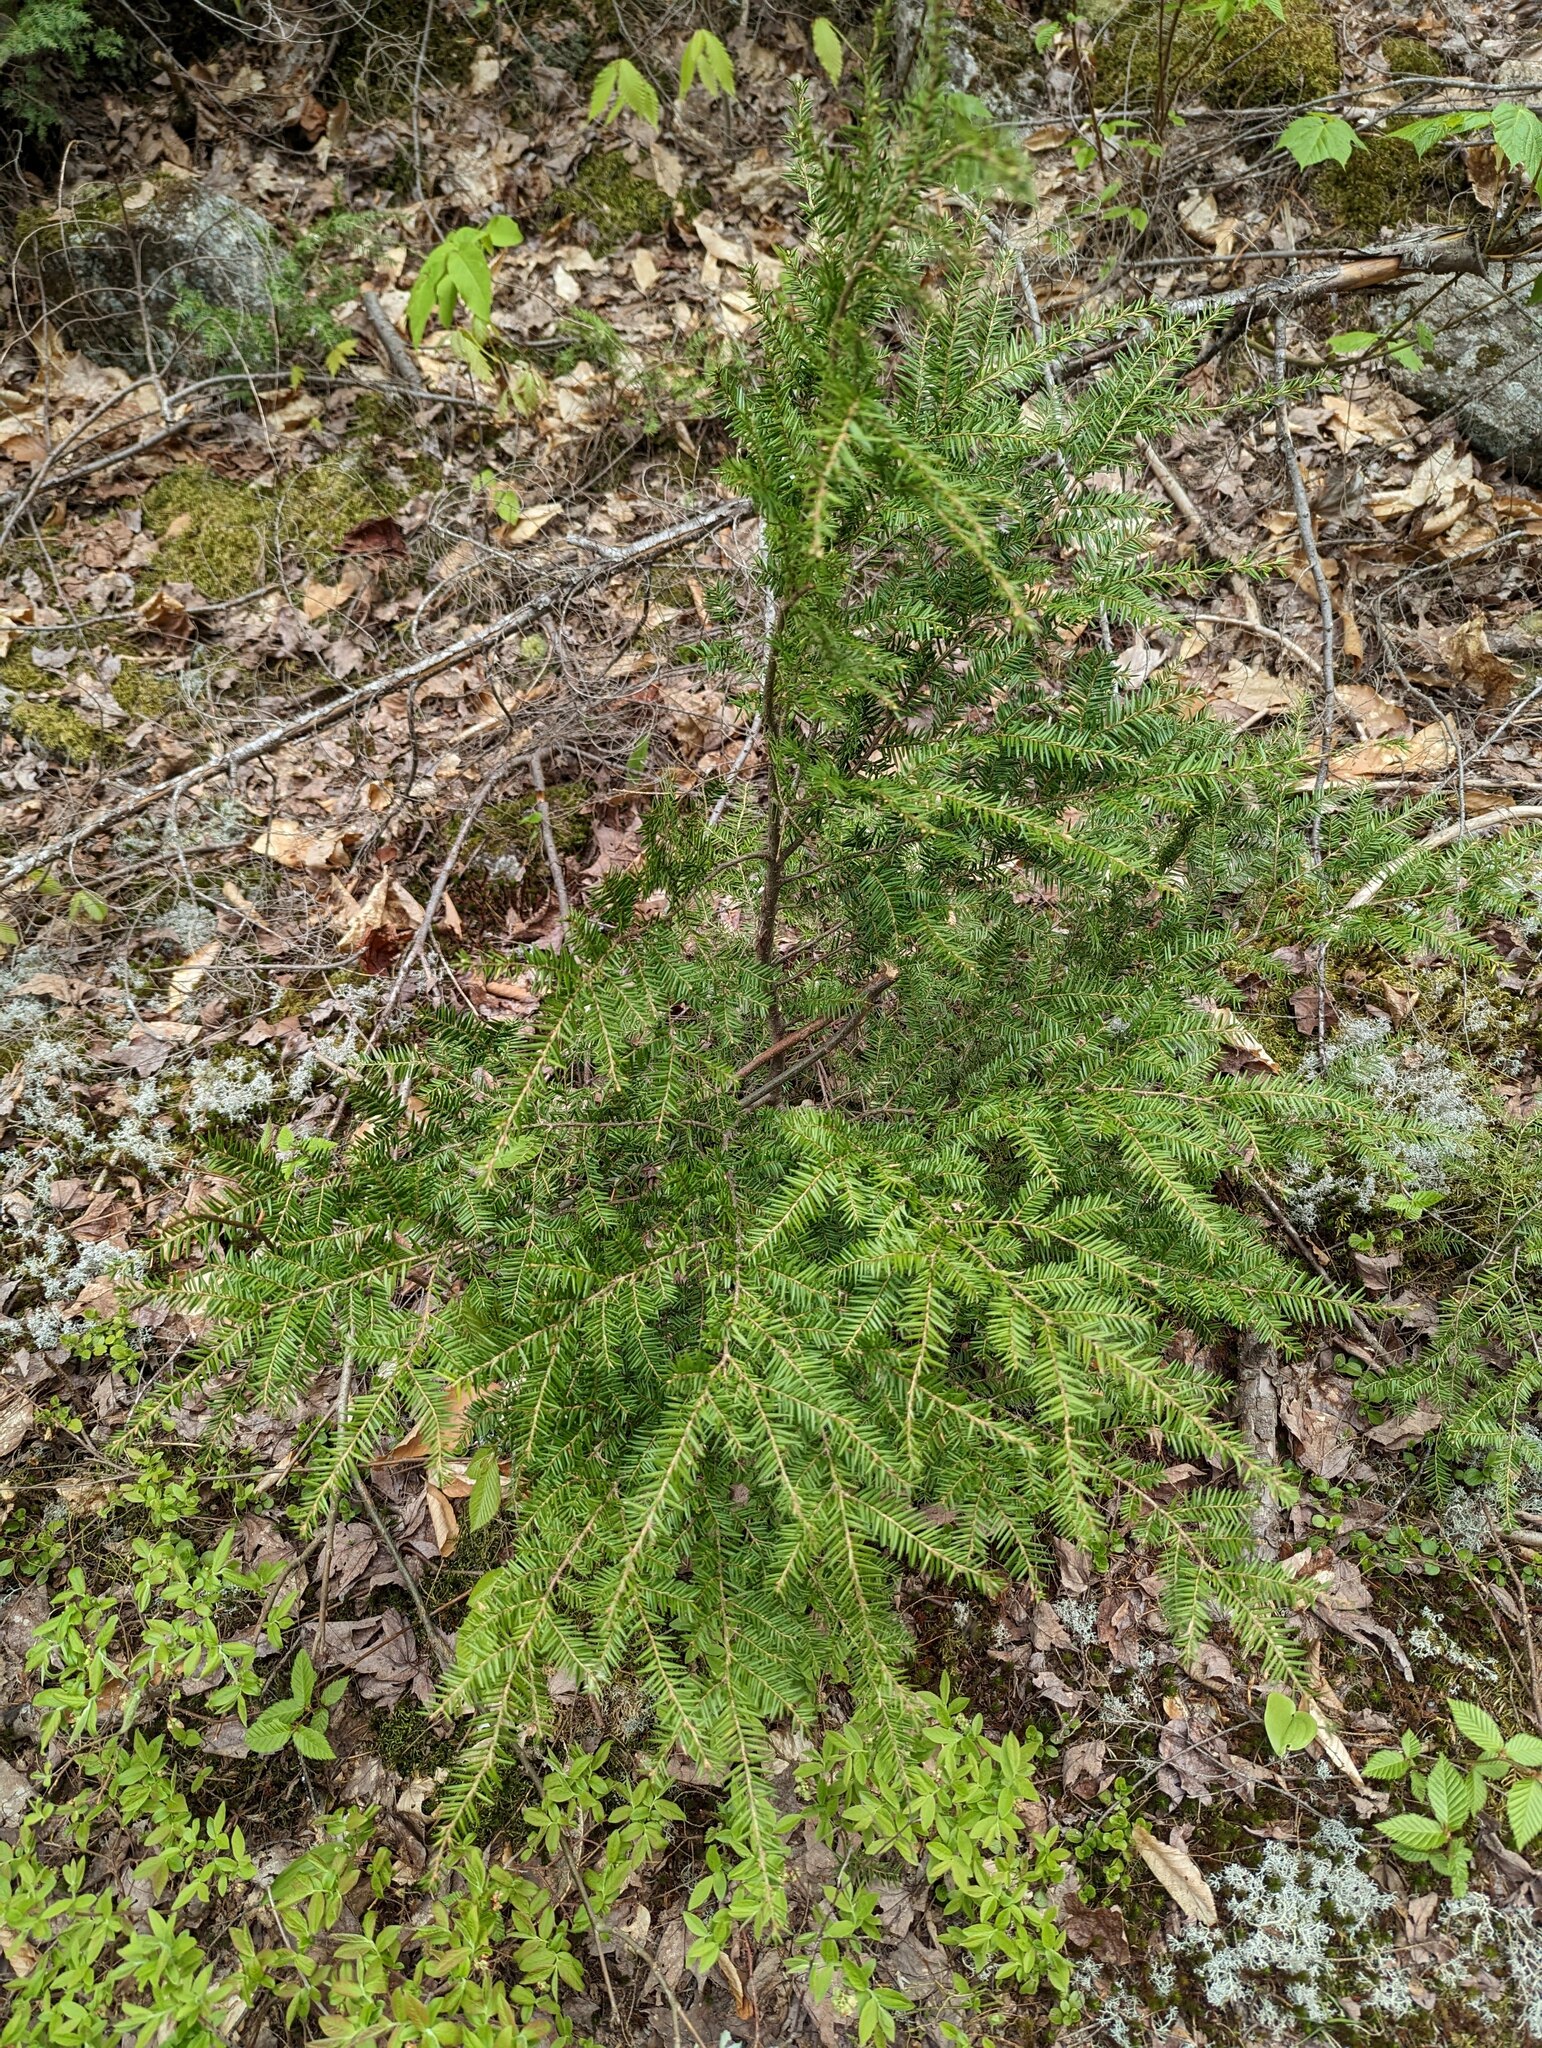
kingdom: Plantae
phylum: Tracheophyta
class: Pinopsida
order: Pinales
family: Pinaceae
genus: Tsuga
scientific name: Tsuga canadensis
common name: Eastern hemlock
